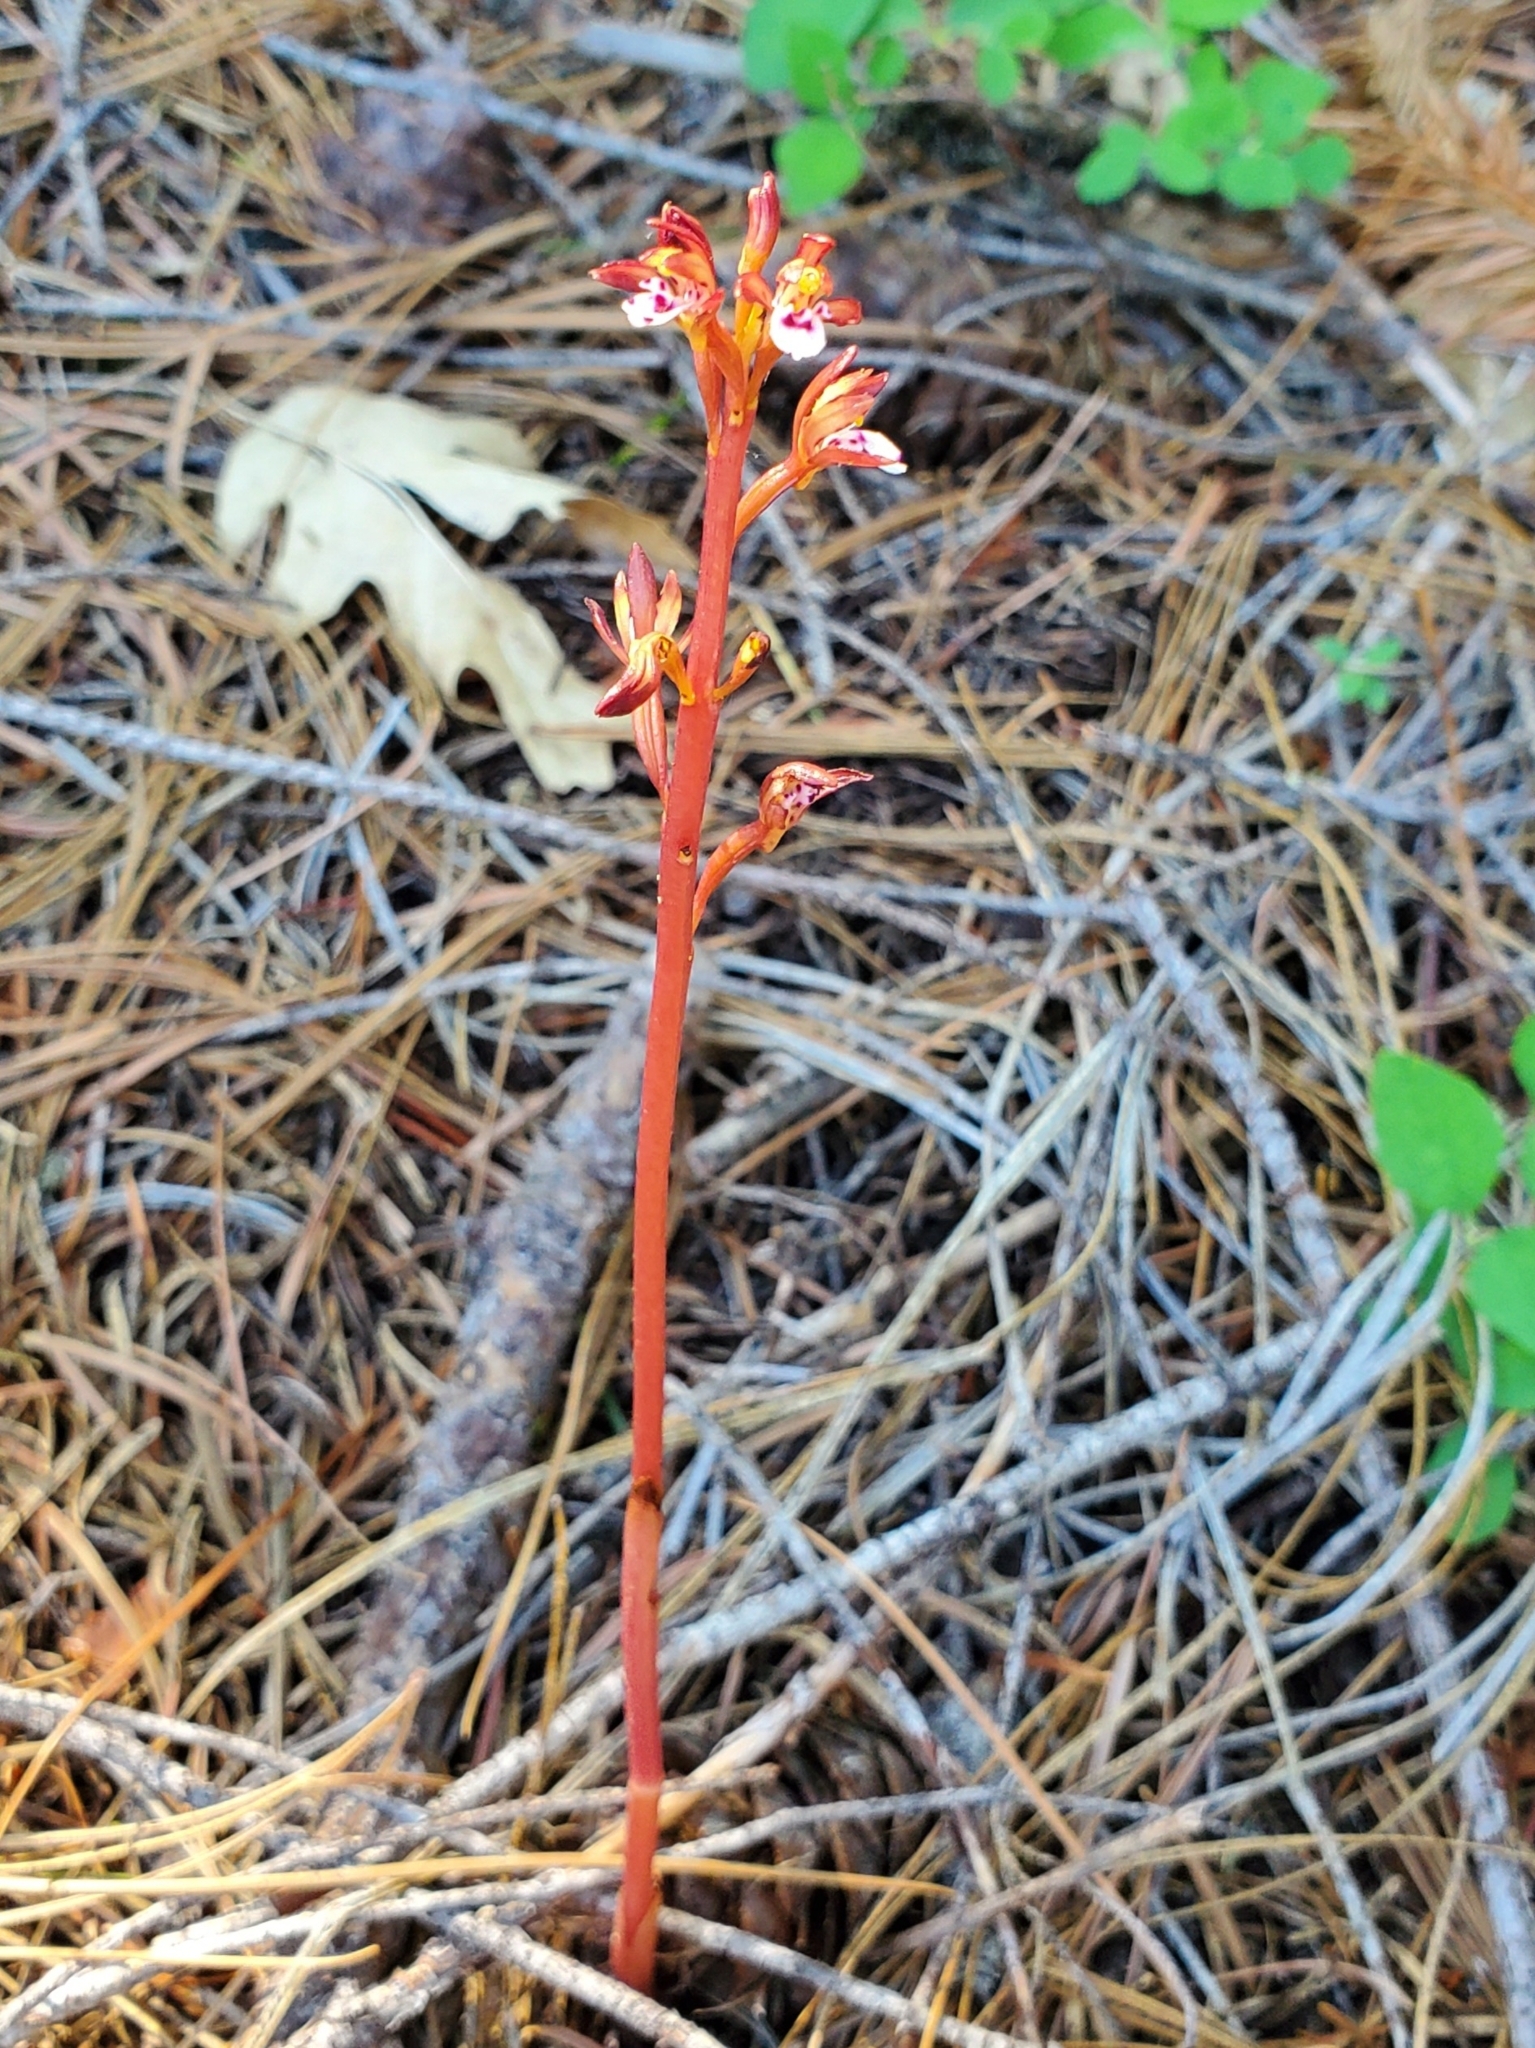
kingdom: Plantae
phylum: Tracheophyta
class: Liliopsida
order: Asparagales
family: Orchidaceae
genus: Corallorhiza
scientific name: Corallorhiza maculata
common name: Spotted coralroot
